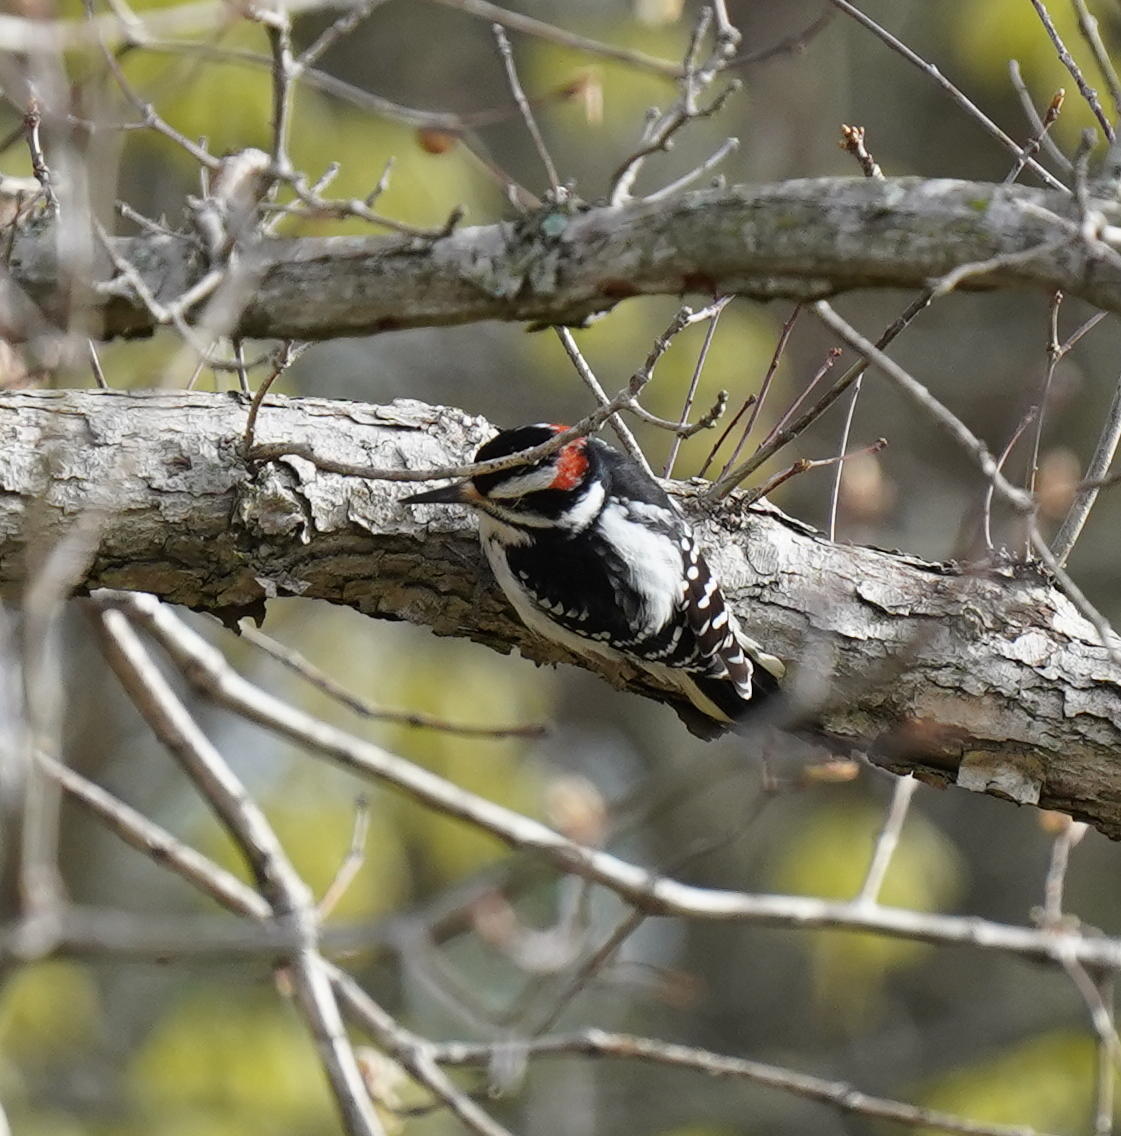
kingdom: Animalia
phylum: Chordata
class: Aves
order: Piciformes
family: Picidae
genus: Leuconotopicus
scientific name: Leuconotopicus villosus
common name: Hairy woodpecker
